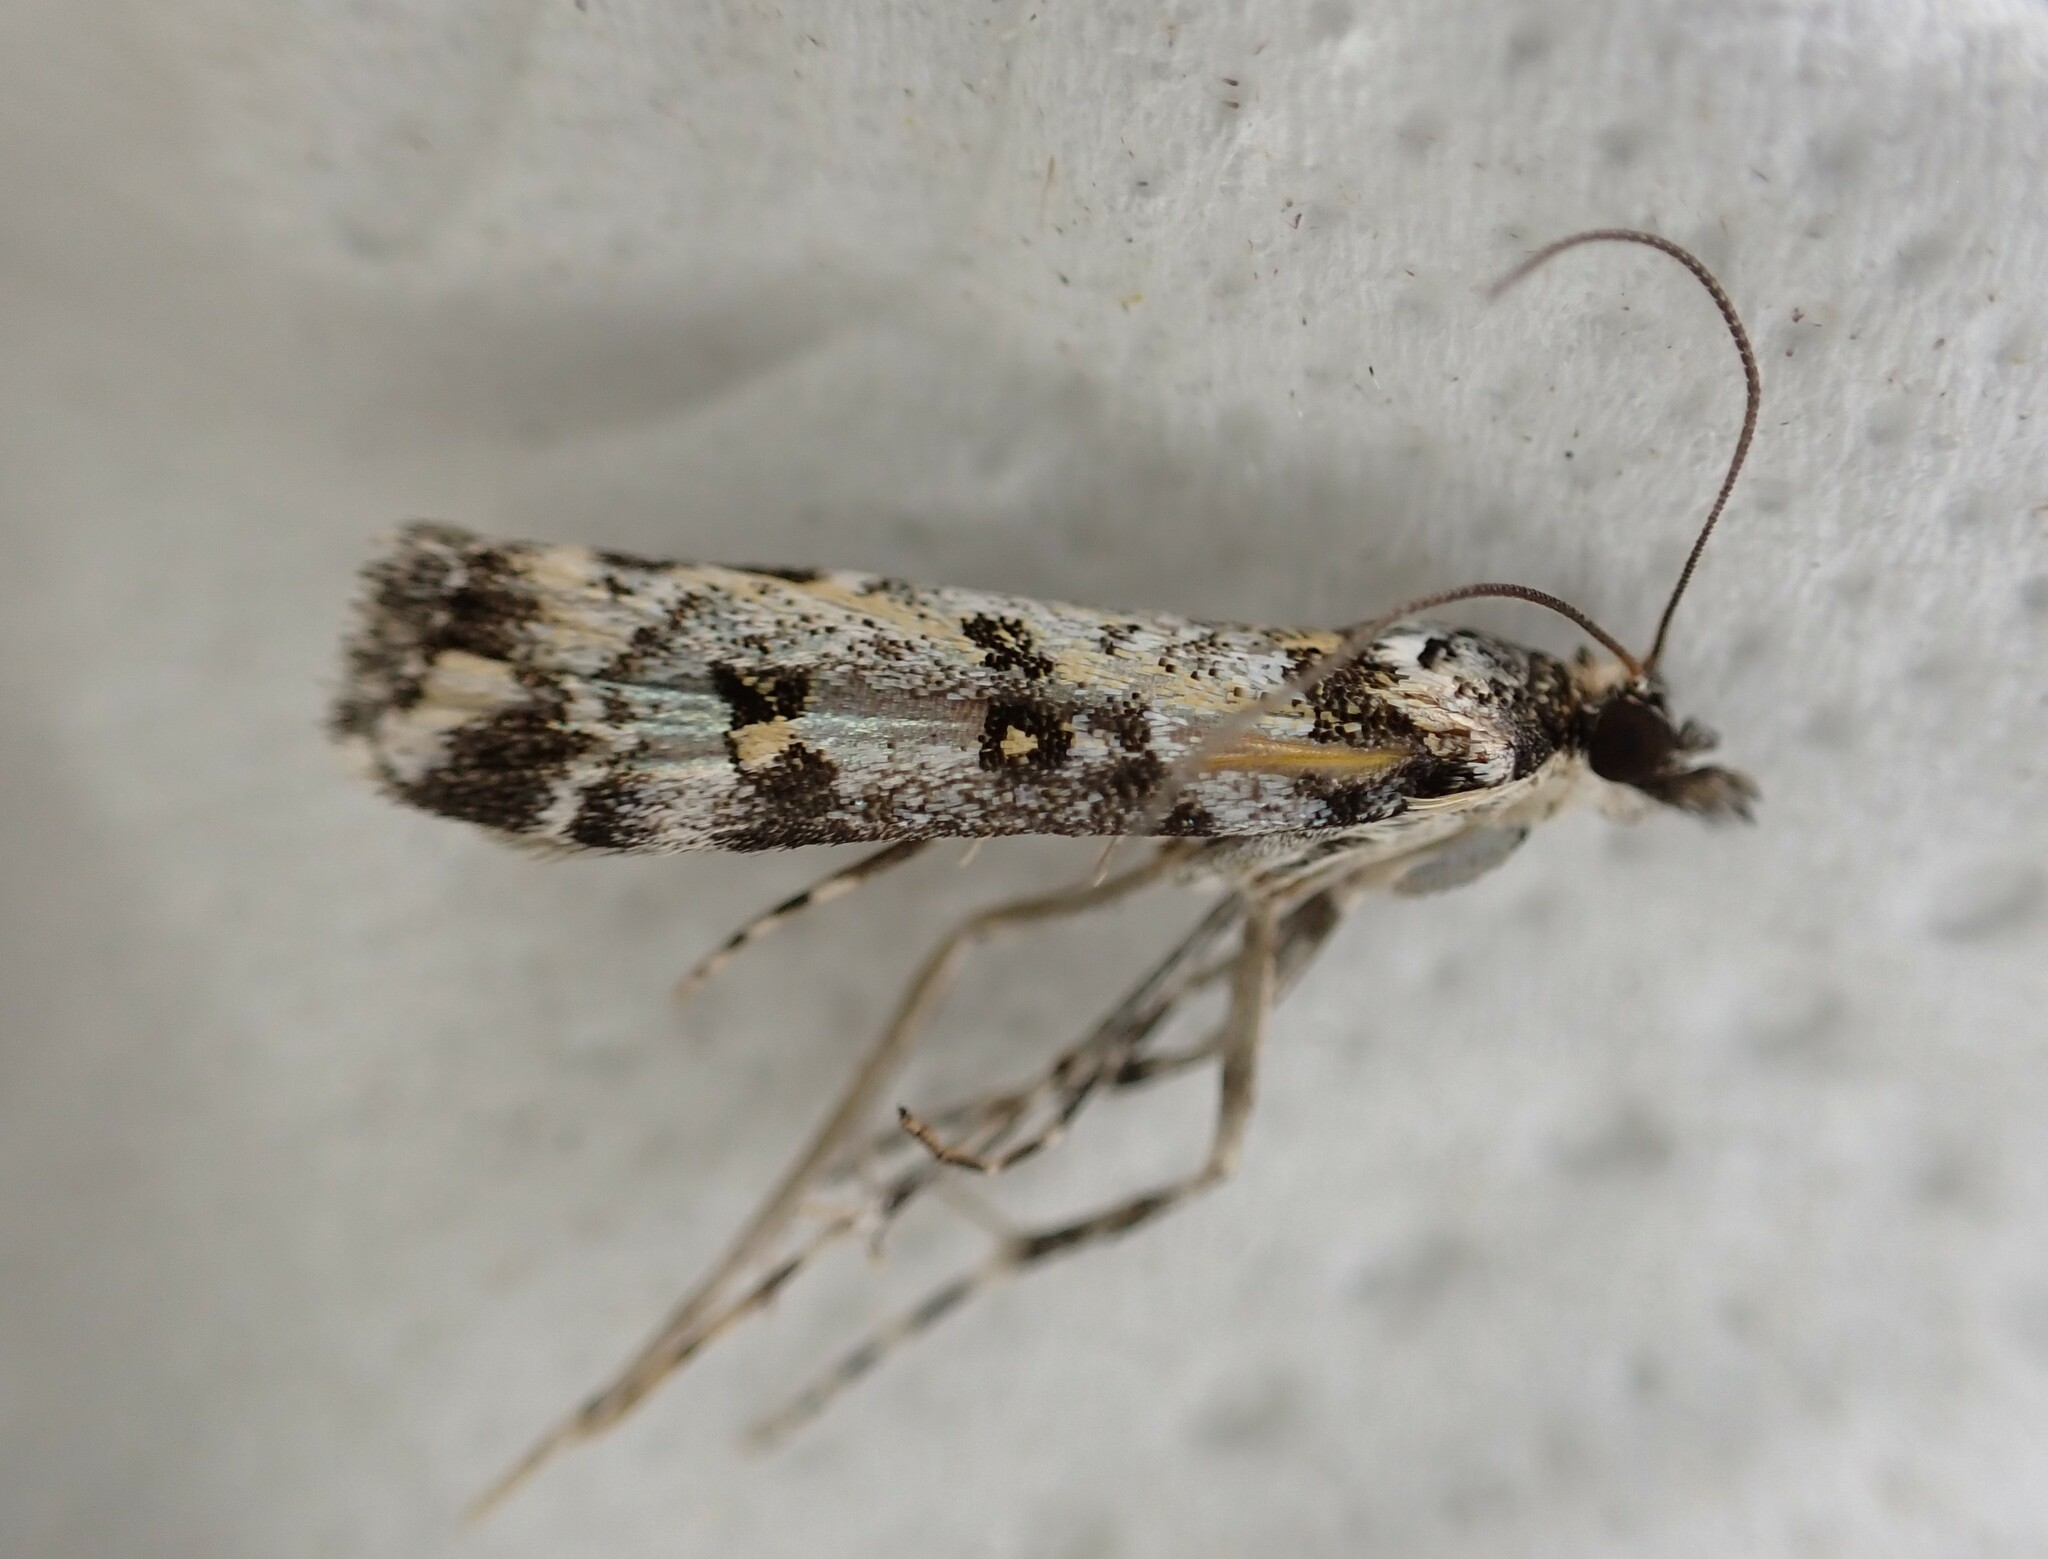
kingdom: Animalia
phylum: Arthropoda
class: Insecta
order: Lepidoptera
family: Crambidae
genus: Eudonia
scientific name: Eudonia diphtheralis
